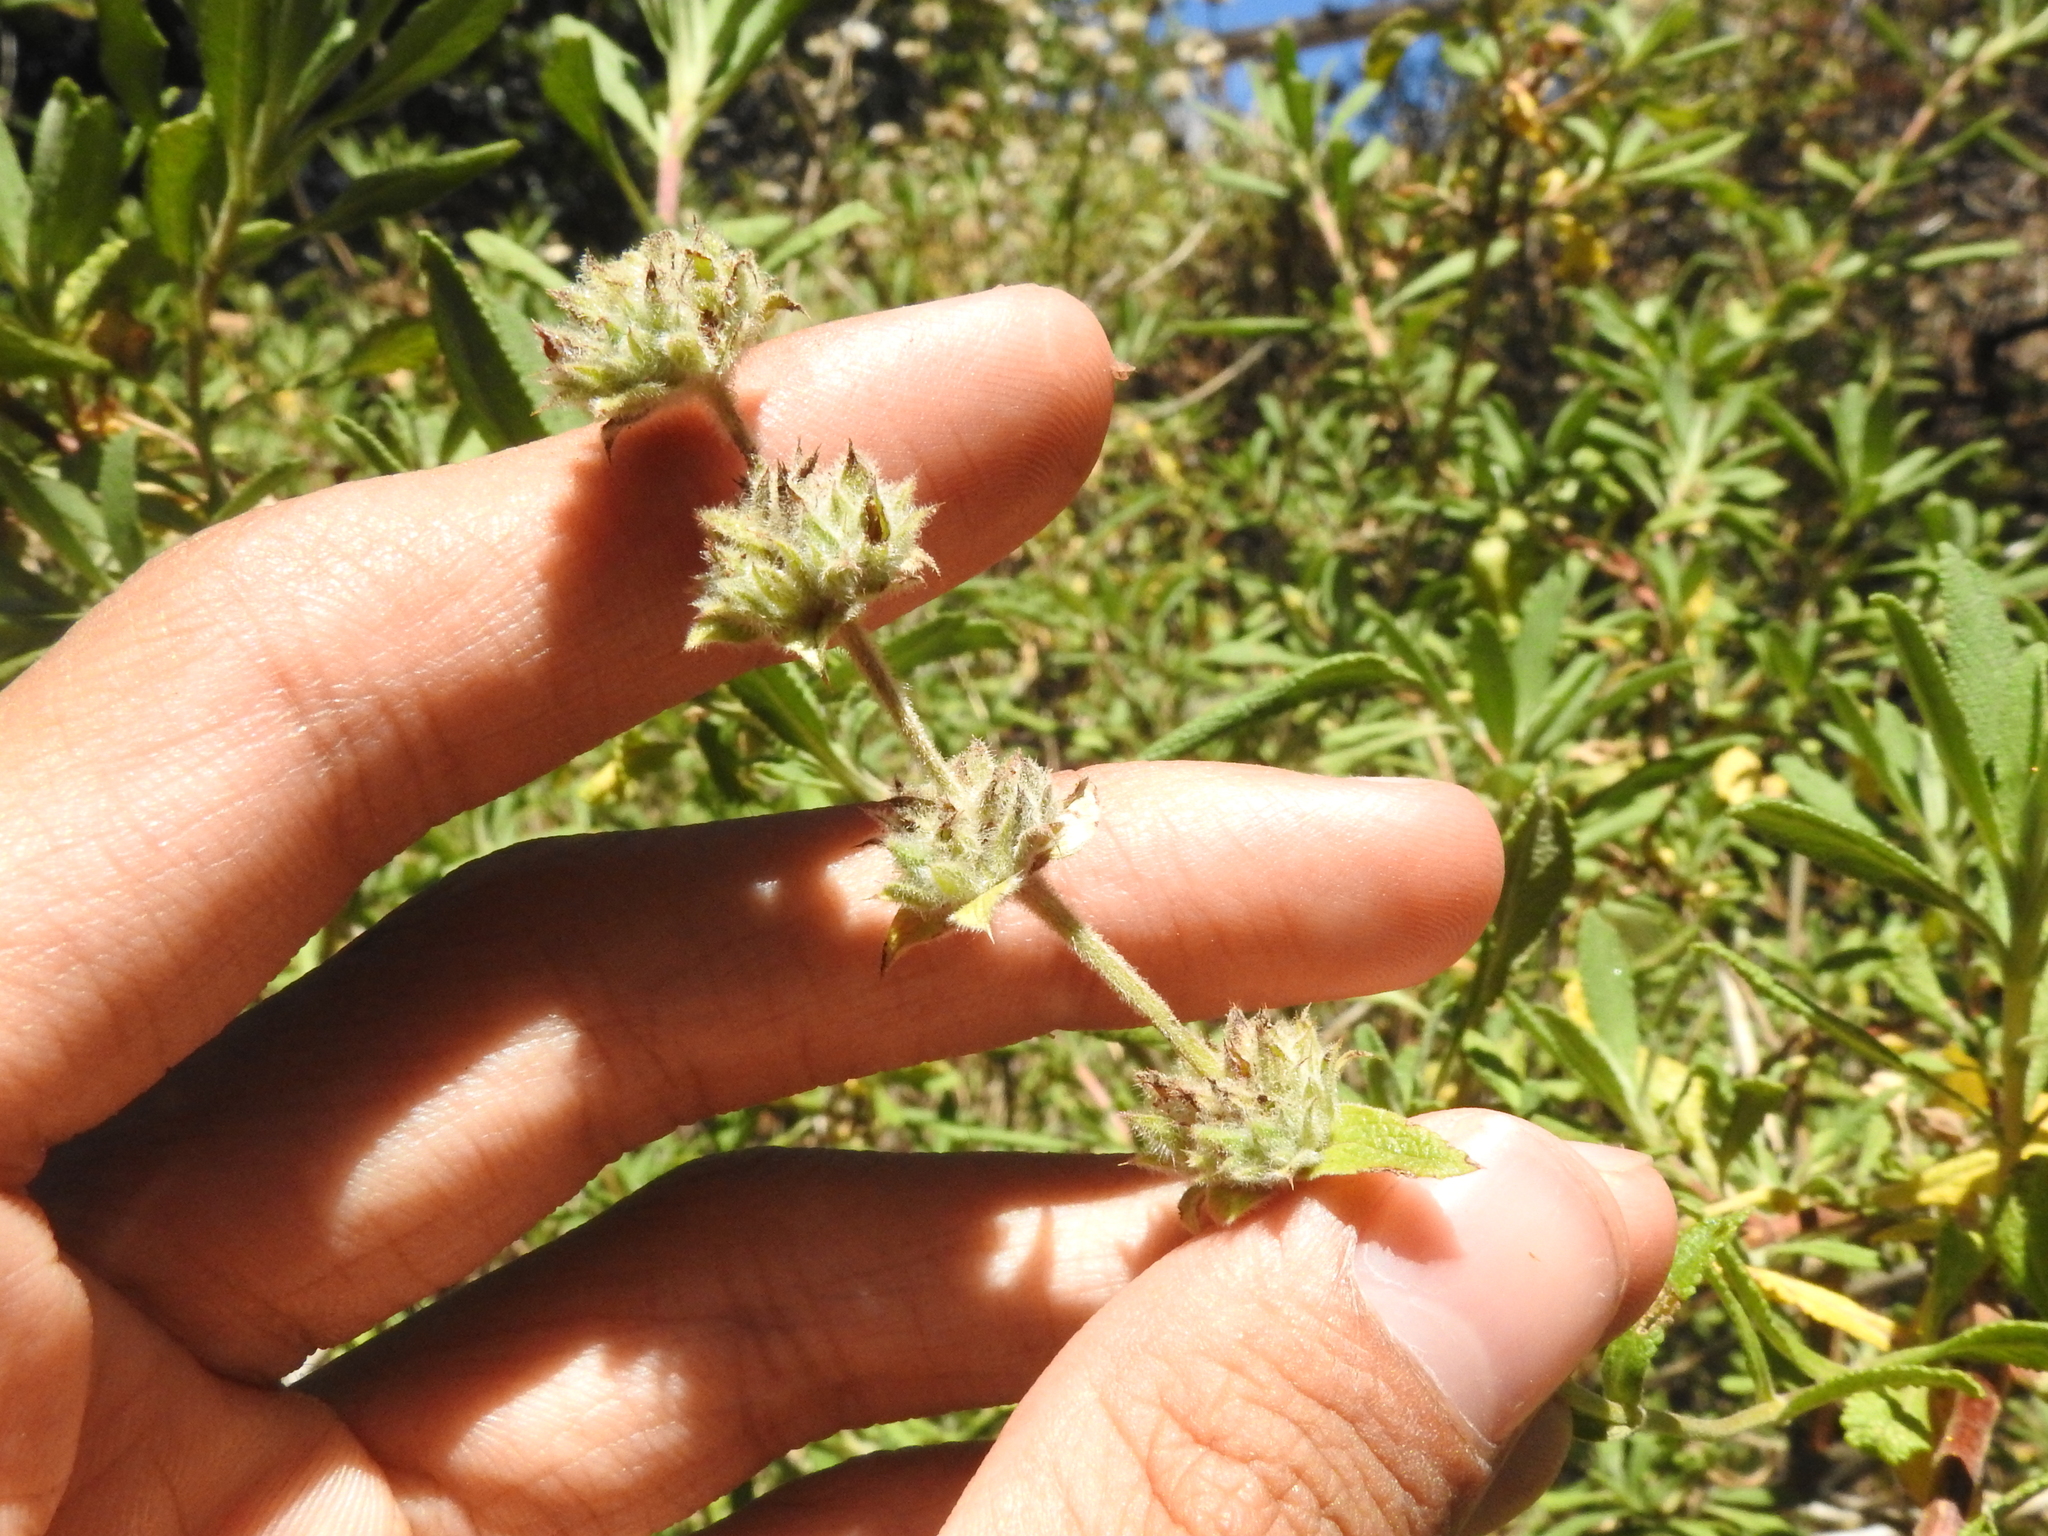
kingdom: Plantae
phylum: Tracheophyta
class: Magnoliopsida
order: Lamiales
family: Lamiaceae
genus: Salvia
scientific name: Salvia mellifera
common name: Black sage
